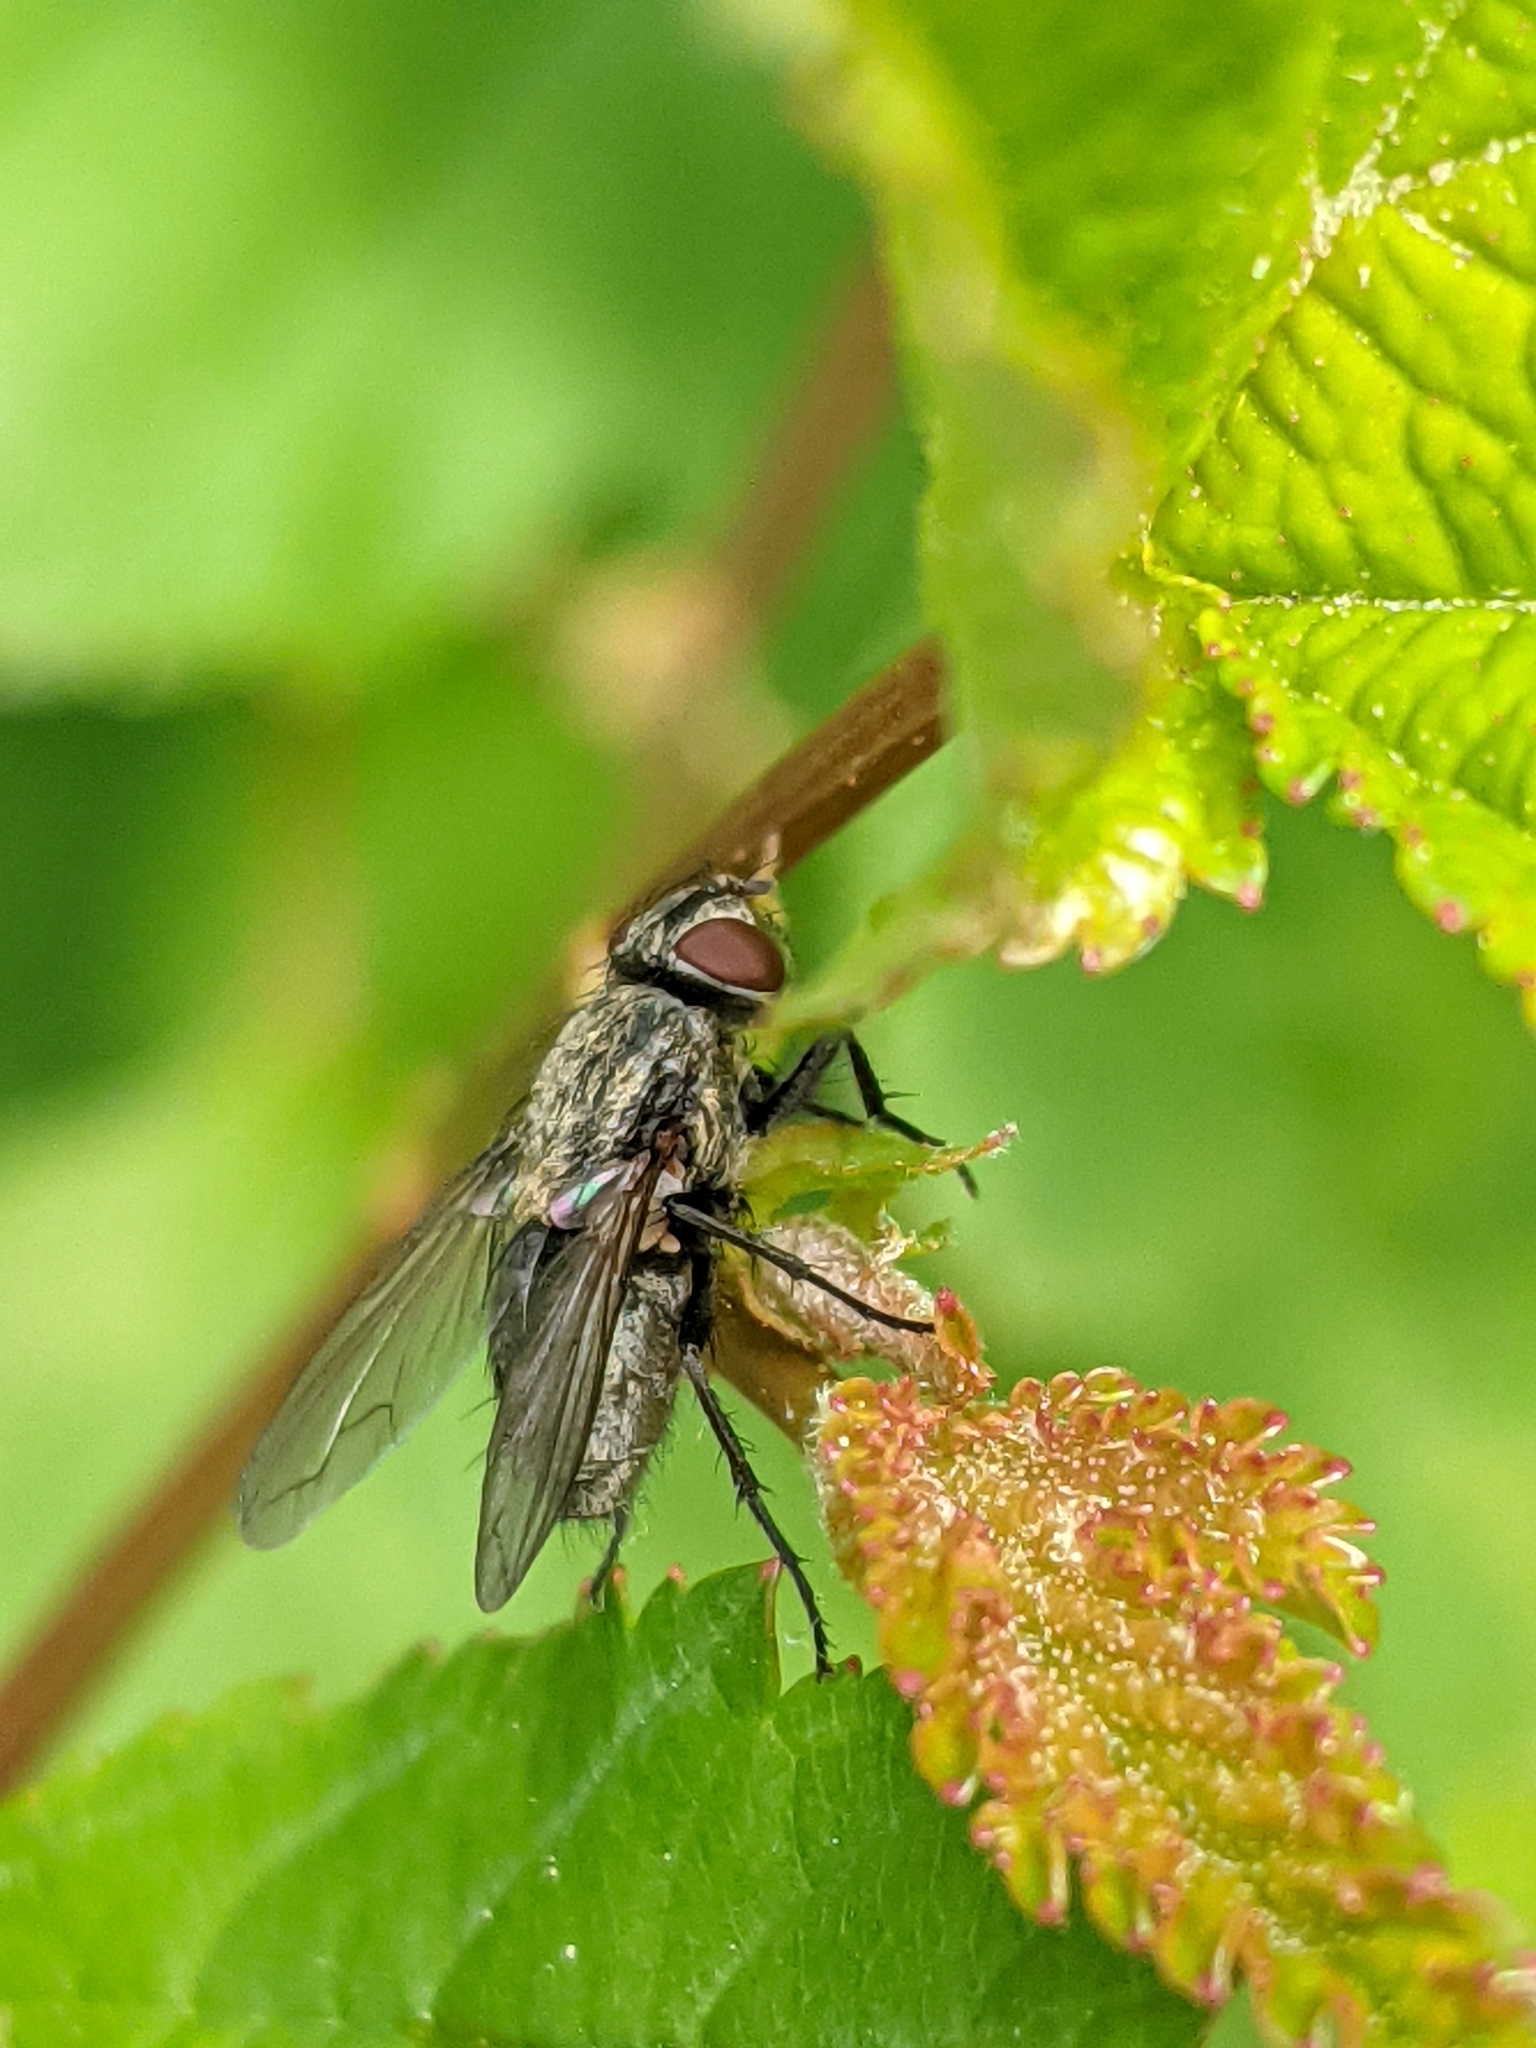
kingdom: Animalia
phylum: Arthropoda
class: Insecta
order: Diptera
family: Polleniidae
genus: Pollenia
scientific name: Pollenia
